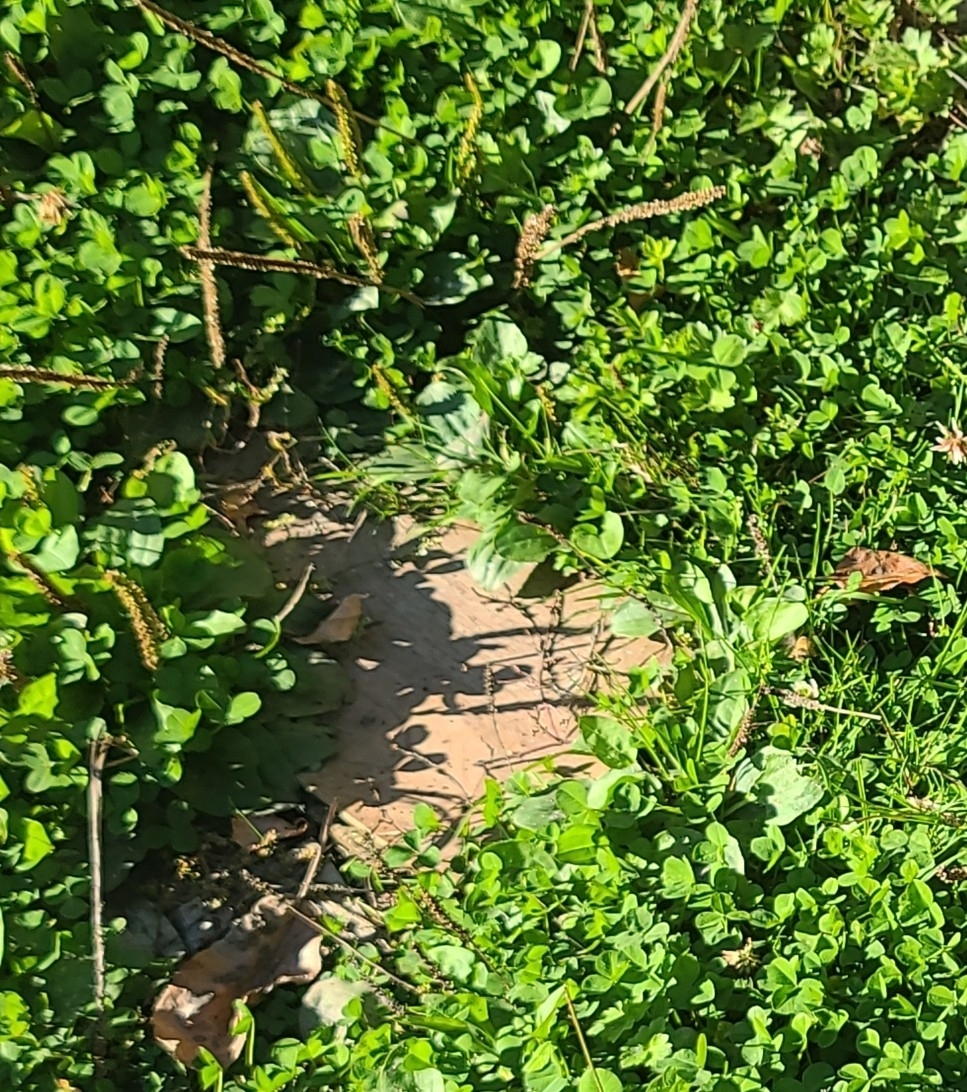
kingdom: Plantae
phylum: Tracheophyta
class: Magnoliopsida
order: Lamiales
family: Plantaginaceae
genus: Plantago
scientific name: Plantago major
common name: Common plantain
